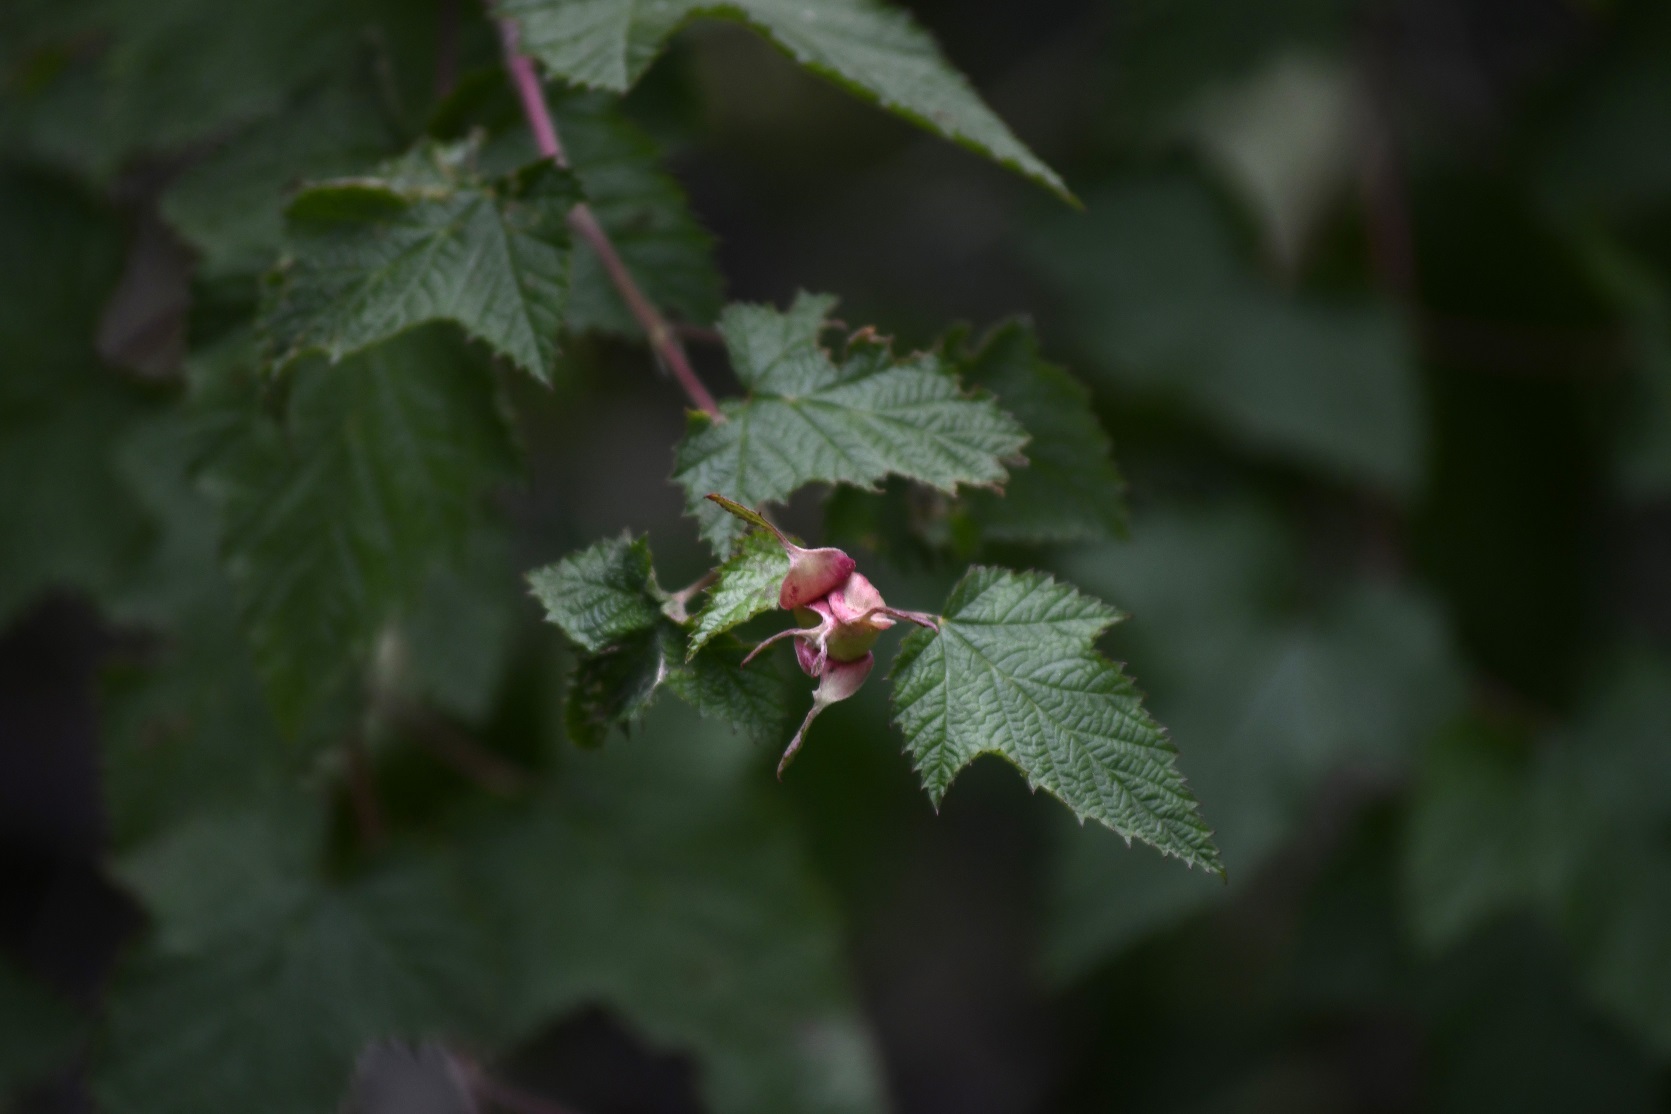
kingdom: Plantae
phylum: Tracheophyta
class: Magnoliopsida
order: Rosales
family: Rosaceae
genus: Rubus
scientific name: Rubus trilobus
